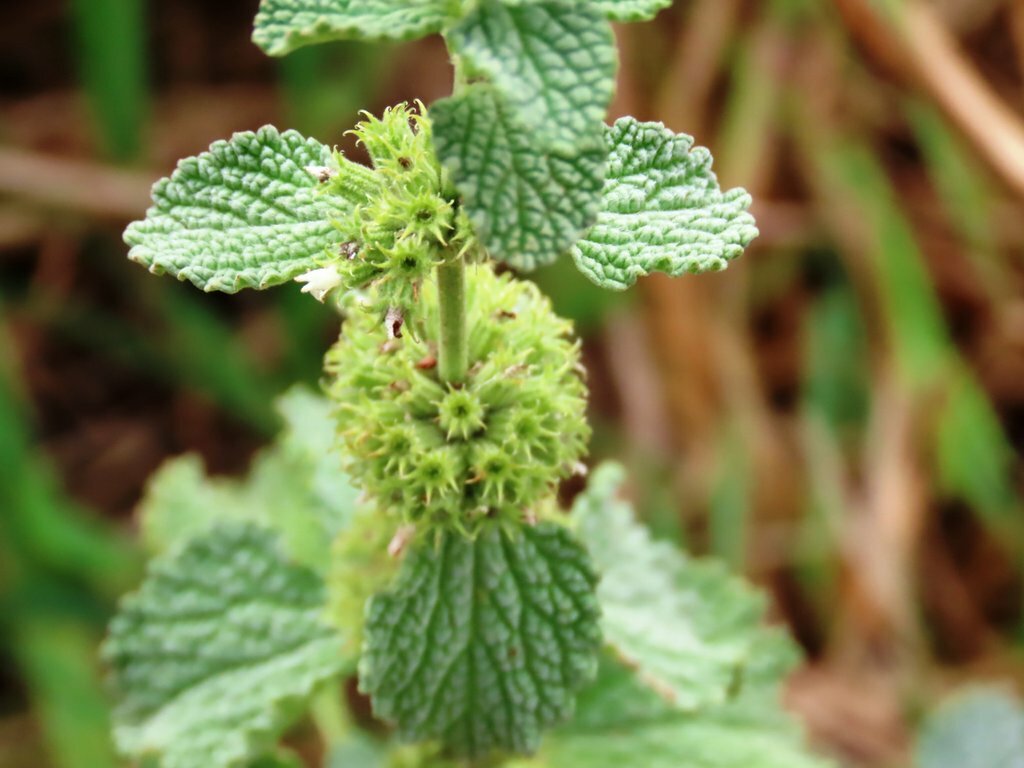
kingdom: Plantae
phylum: Tracheophyta
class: Magnoliopsida
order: Lamiales
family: Lamiaceae
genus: Marrubium
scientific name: Marrubium vulgare
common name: Horehound
